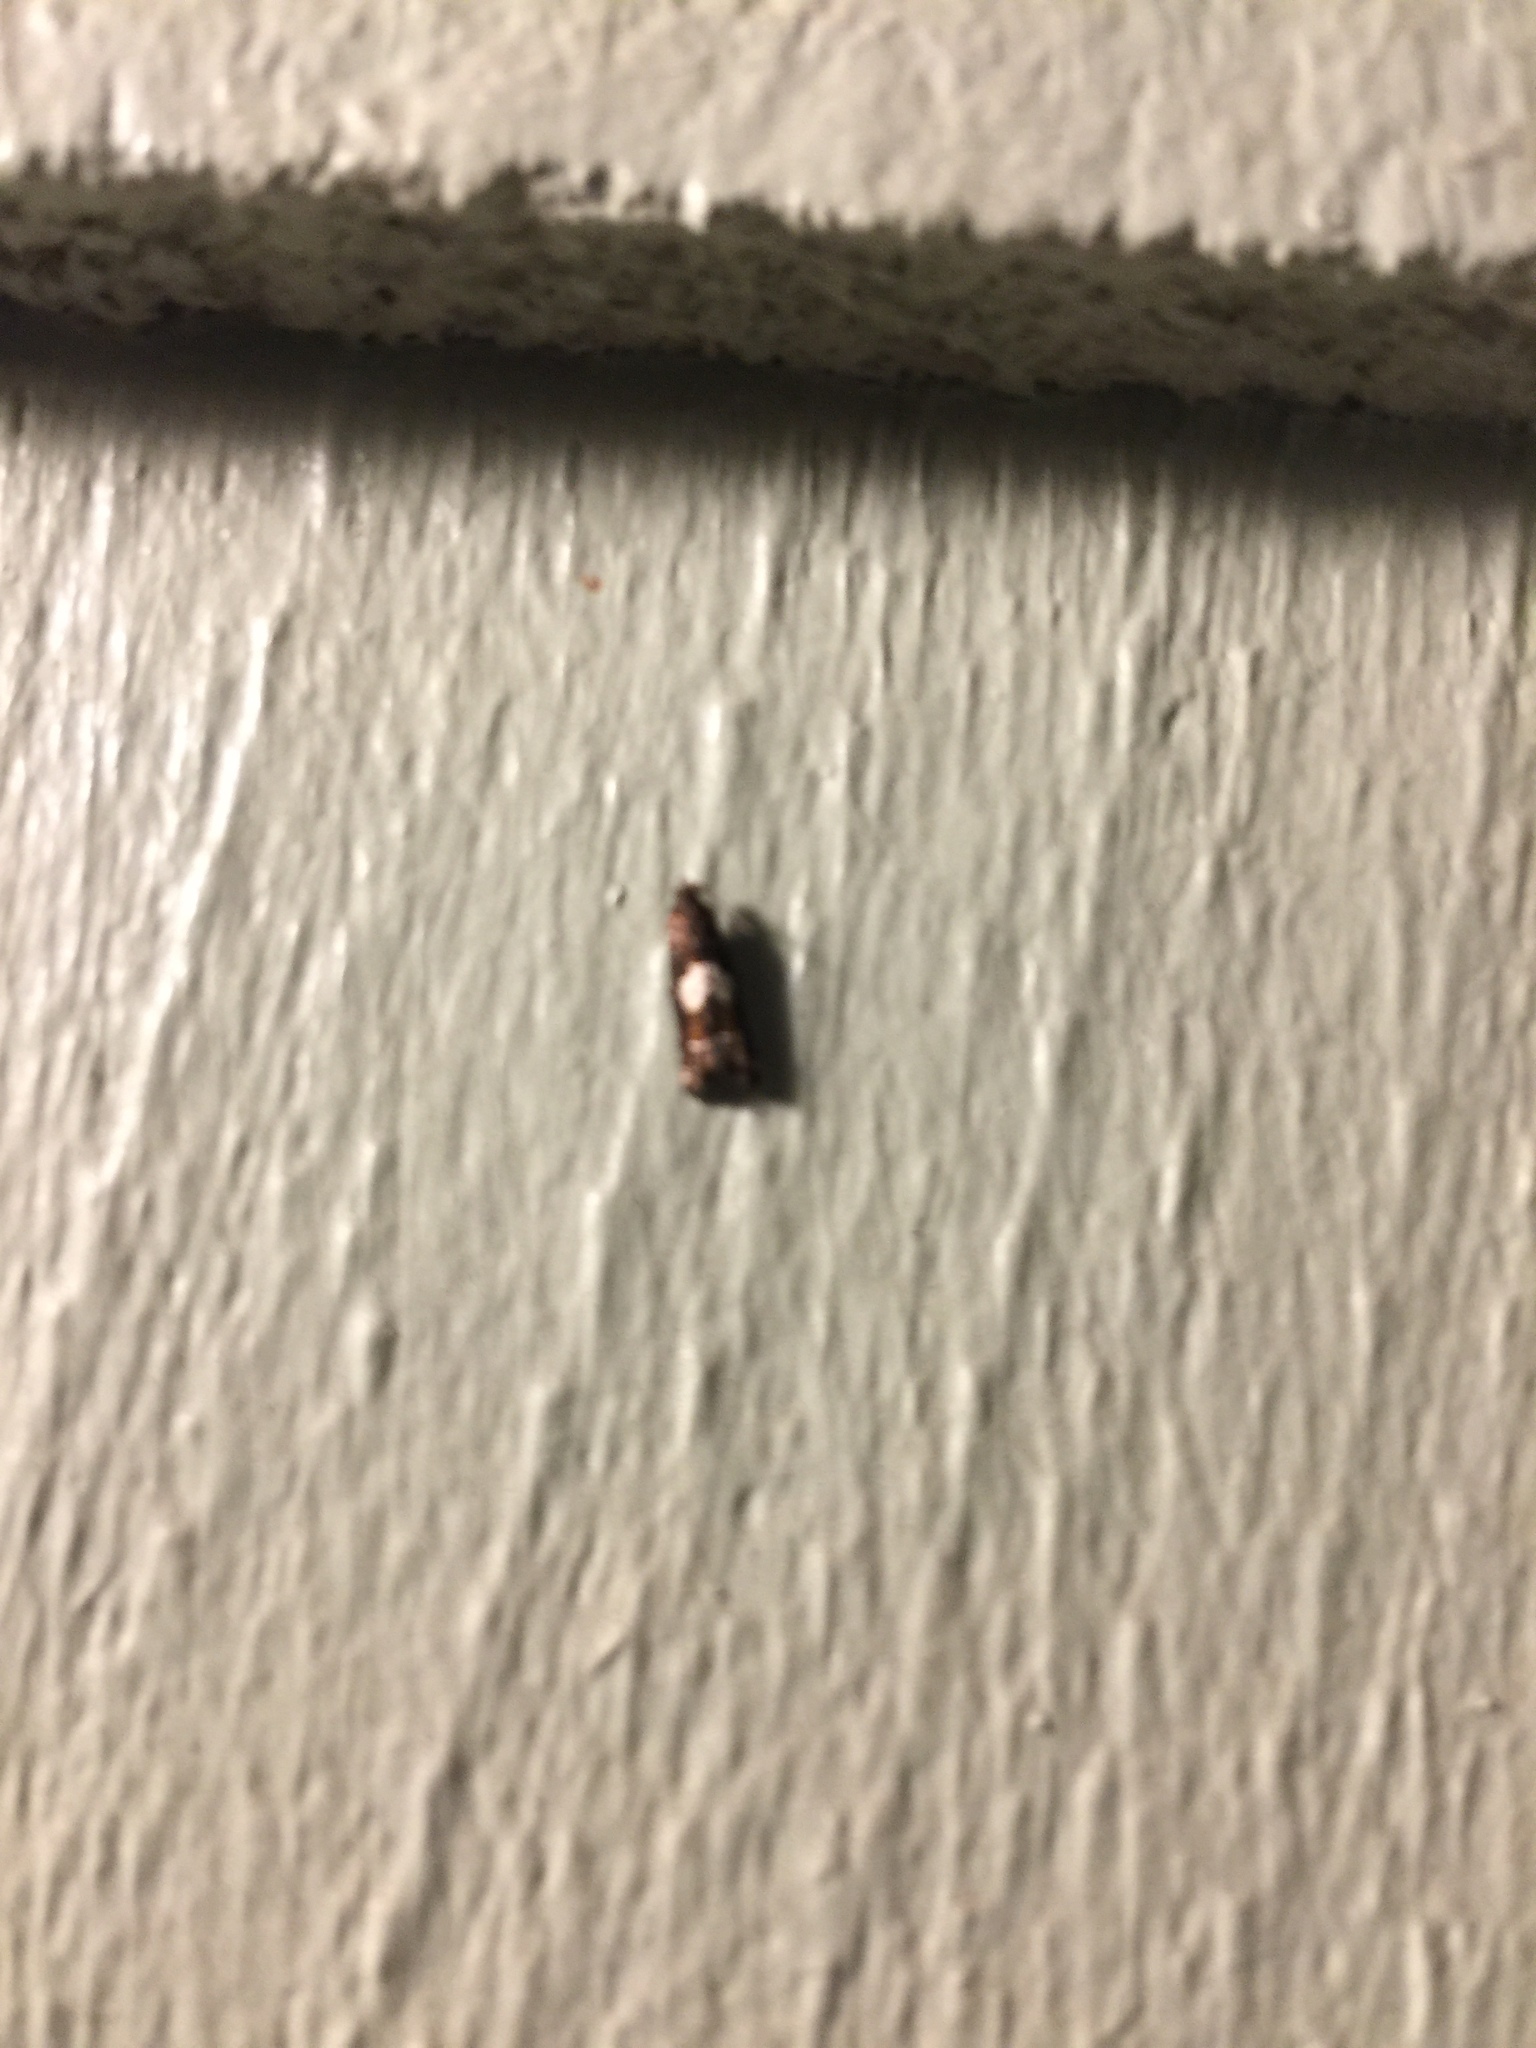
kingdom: Animalia
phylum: Arthropoda
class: Insecta
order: Lepidoptera
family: Tortricidae
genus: Epiblema
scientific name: Epiblema otiosana
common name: Bidens borer moth
